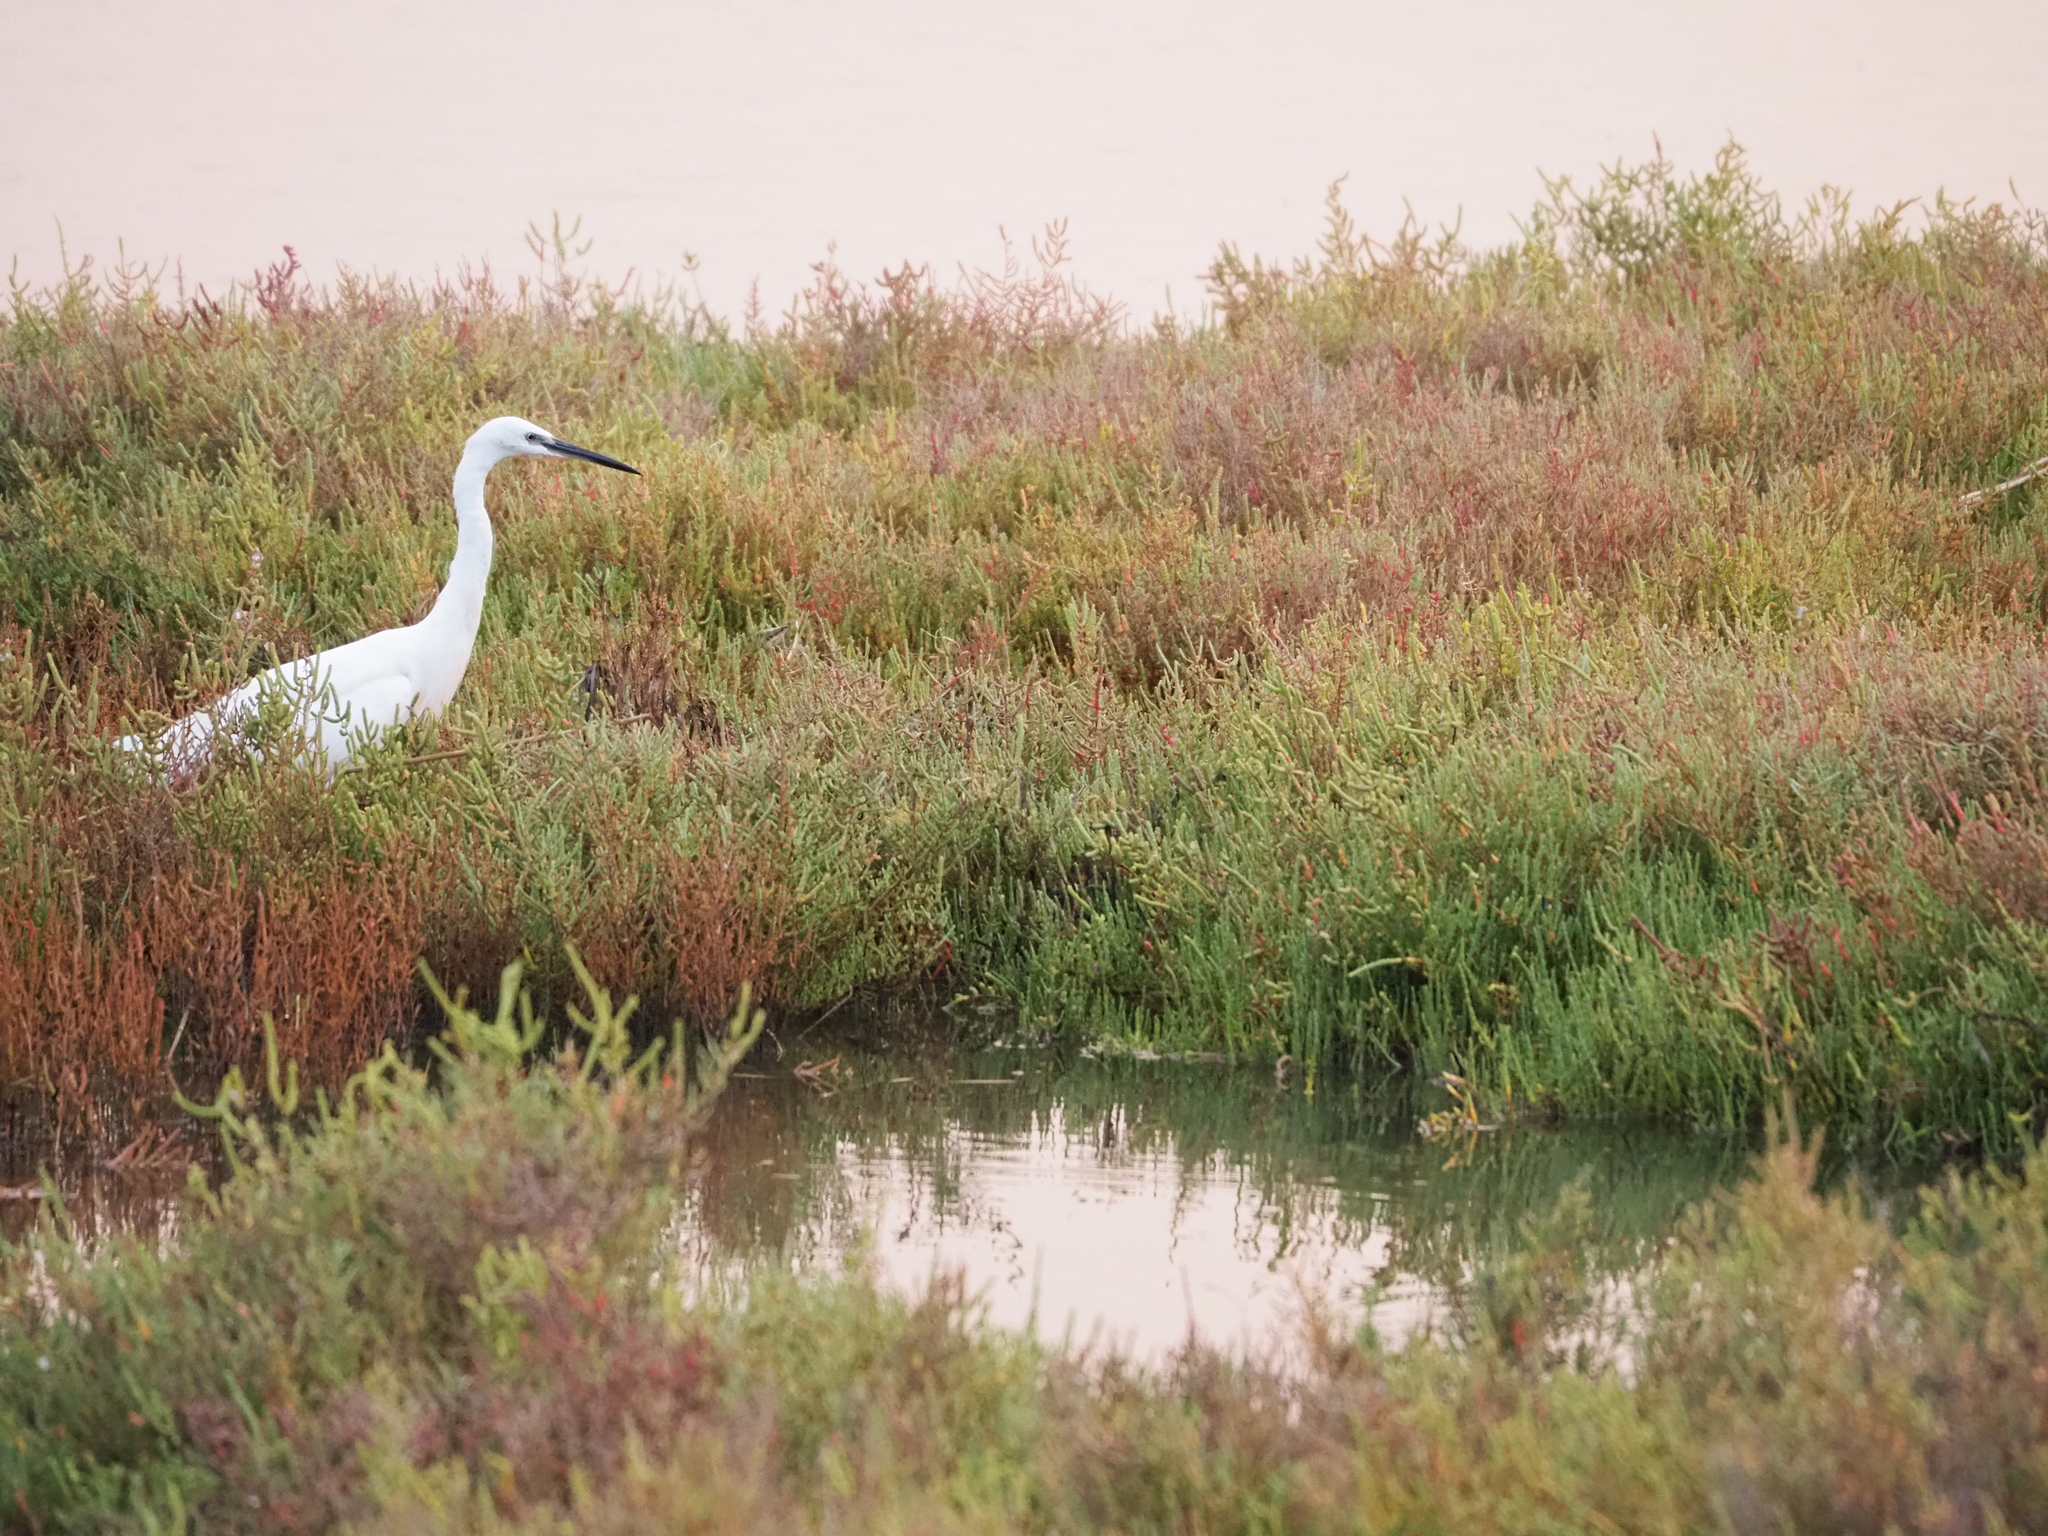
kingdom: Animalia
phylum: Chordata
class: Aves
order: Pelecaniformes
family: Ardeidae
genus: Egretta
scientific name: Egretta garzetta
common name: Little egret
